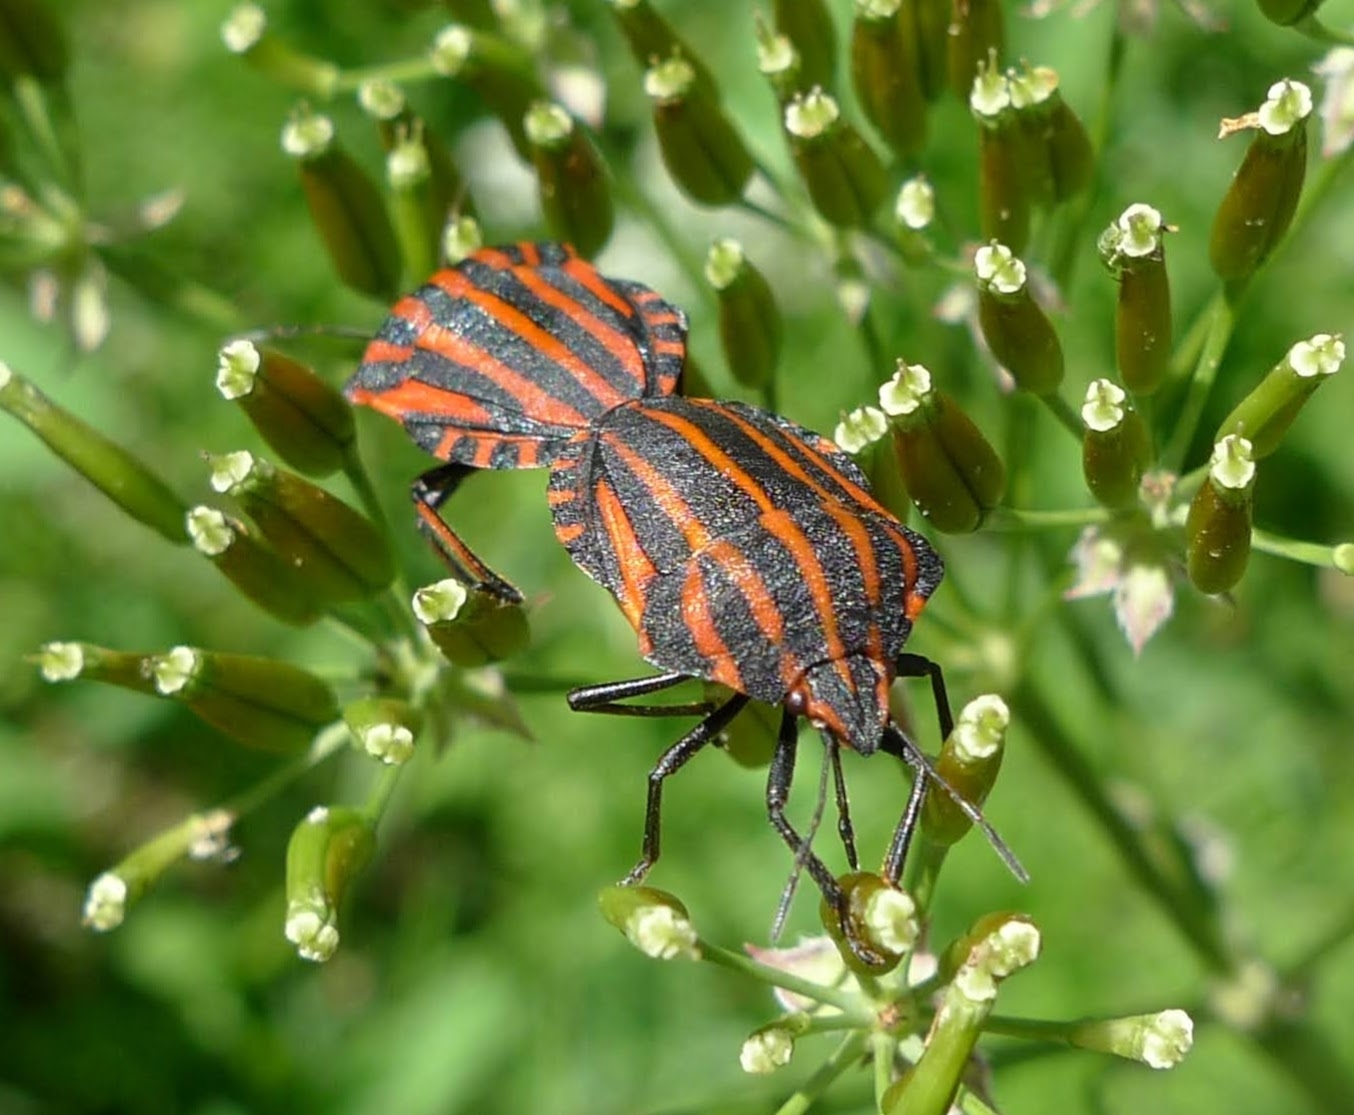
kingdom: Animalia
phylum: Arthropoda
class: Insecta
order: Hemiptera
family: Pentatomidae
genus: Graphosoma
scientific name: Graphosoma italicum
